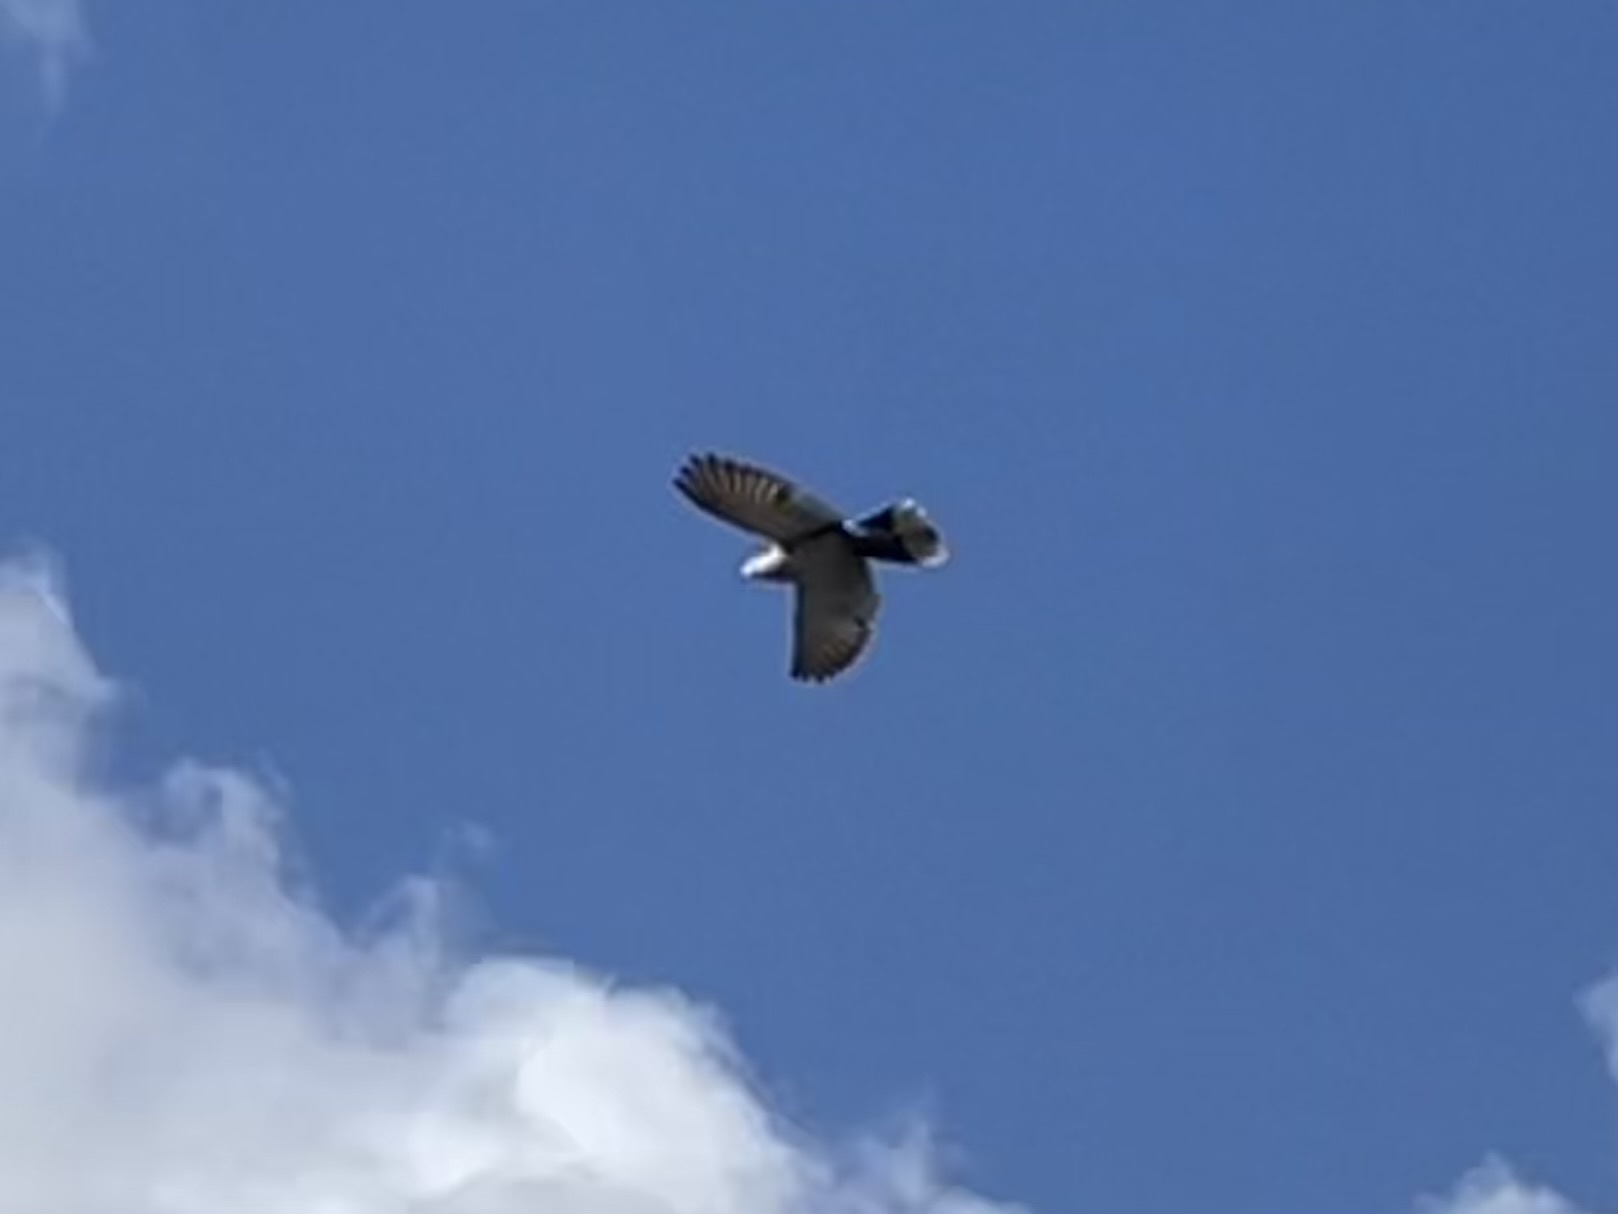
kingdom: Animalia
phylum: Chordata
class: Aves
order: Columbiformes
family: Columbidae
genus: Streptopelia
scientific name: Streptopelia decaocto
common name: Eurasian collared dove
